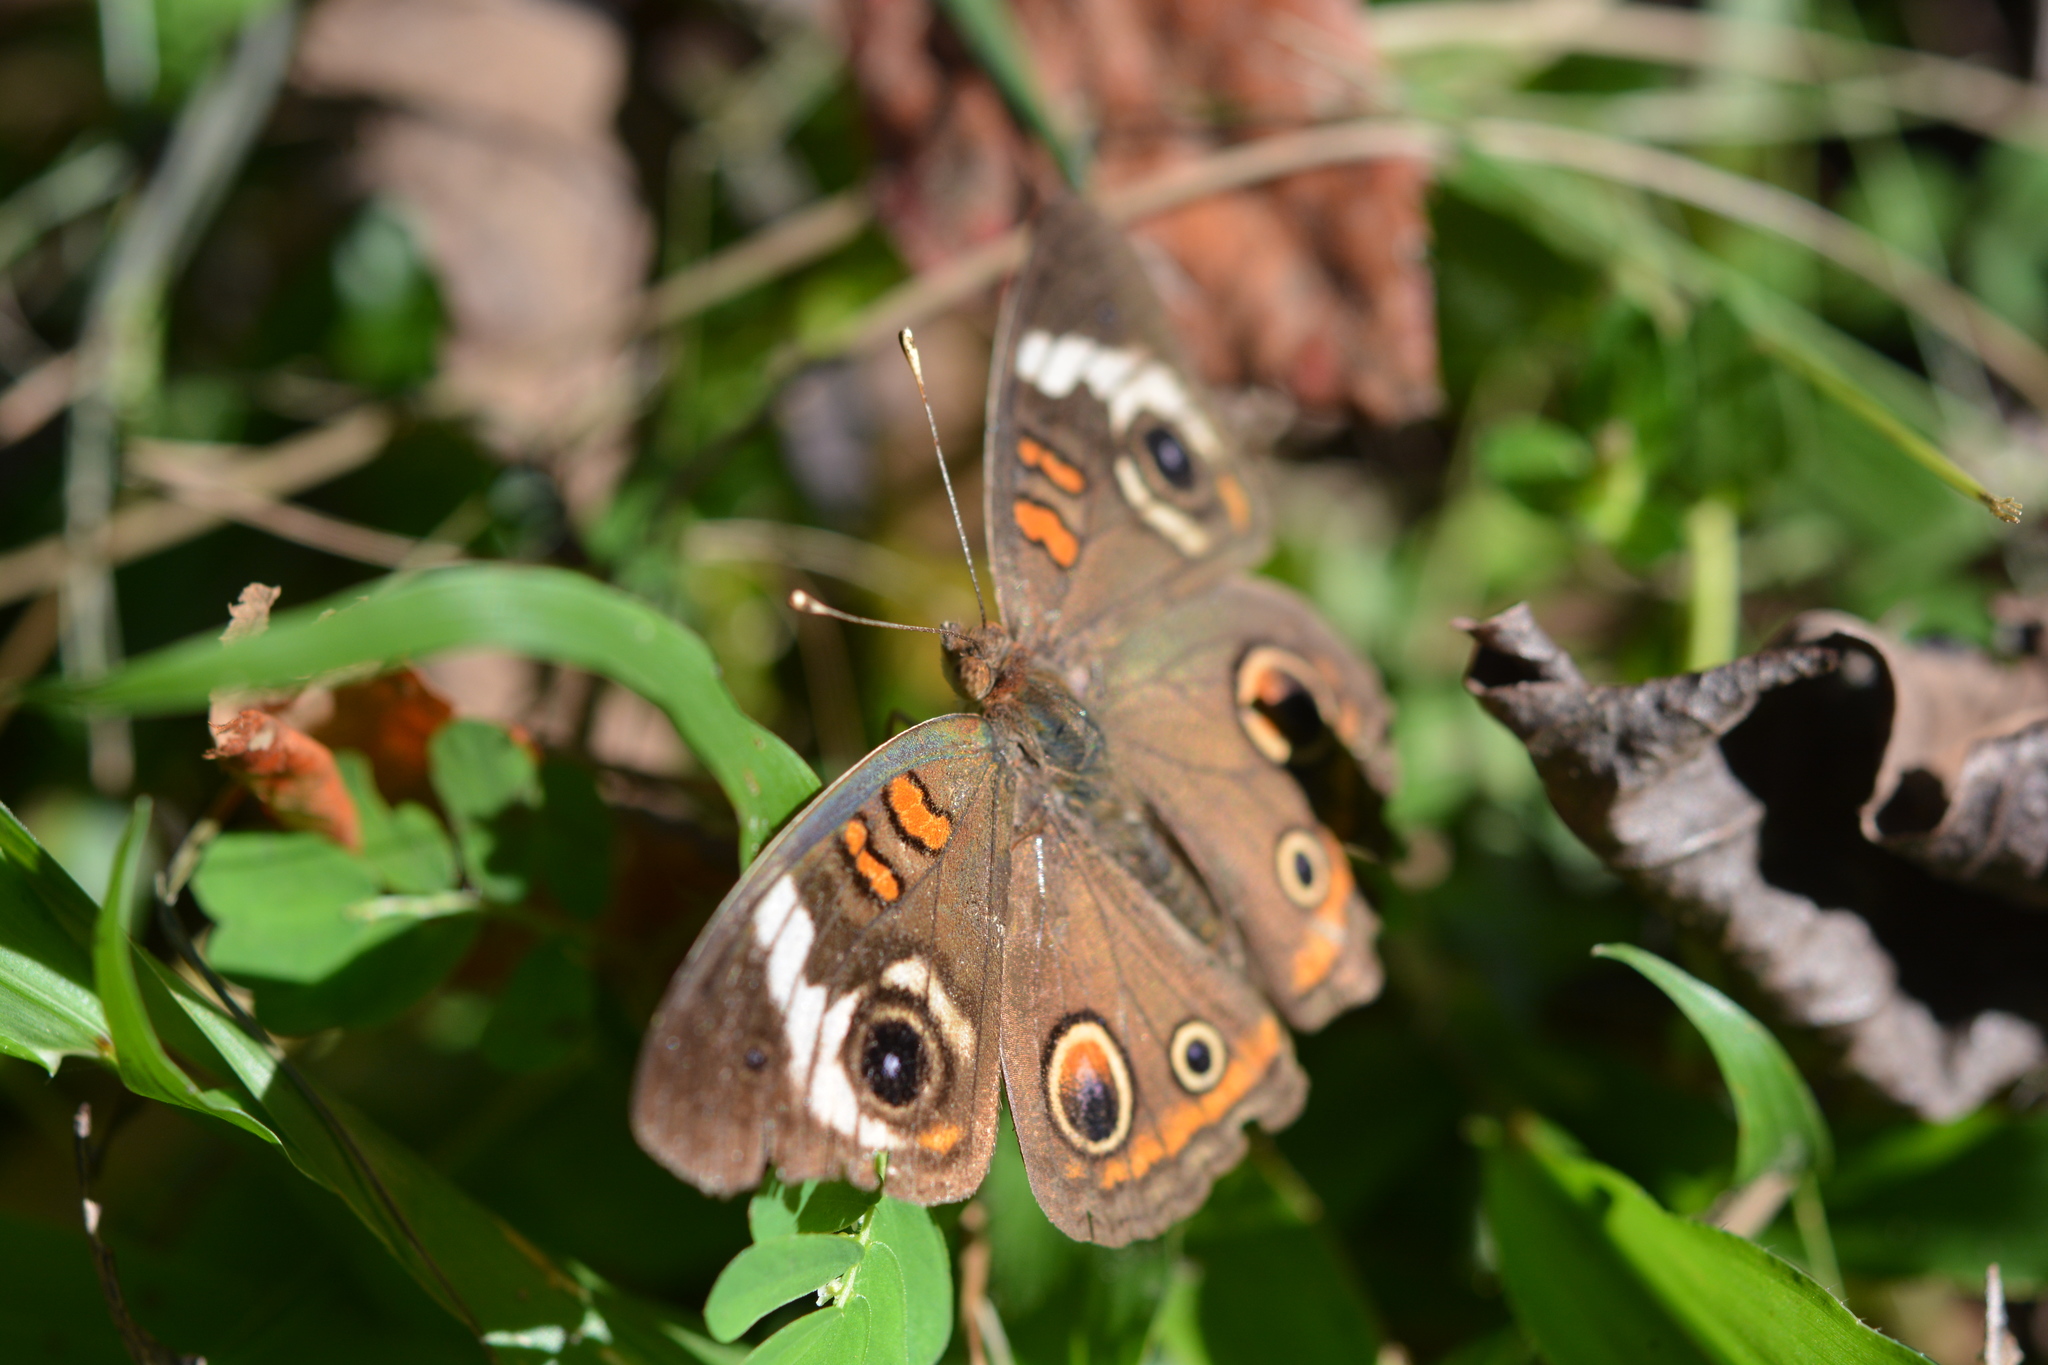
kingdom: Animalia
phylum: Arthropoda
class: Insecta
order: Lepidoptera
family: Nymphalidae
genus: Junonia
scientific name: Junonia coenia
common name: Common buckeye
